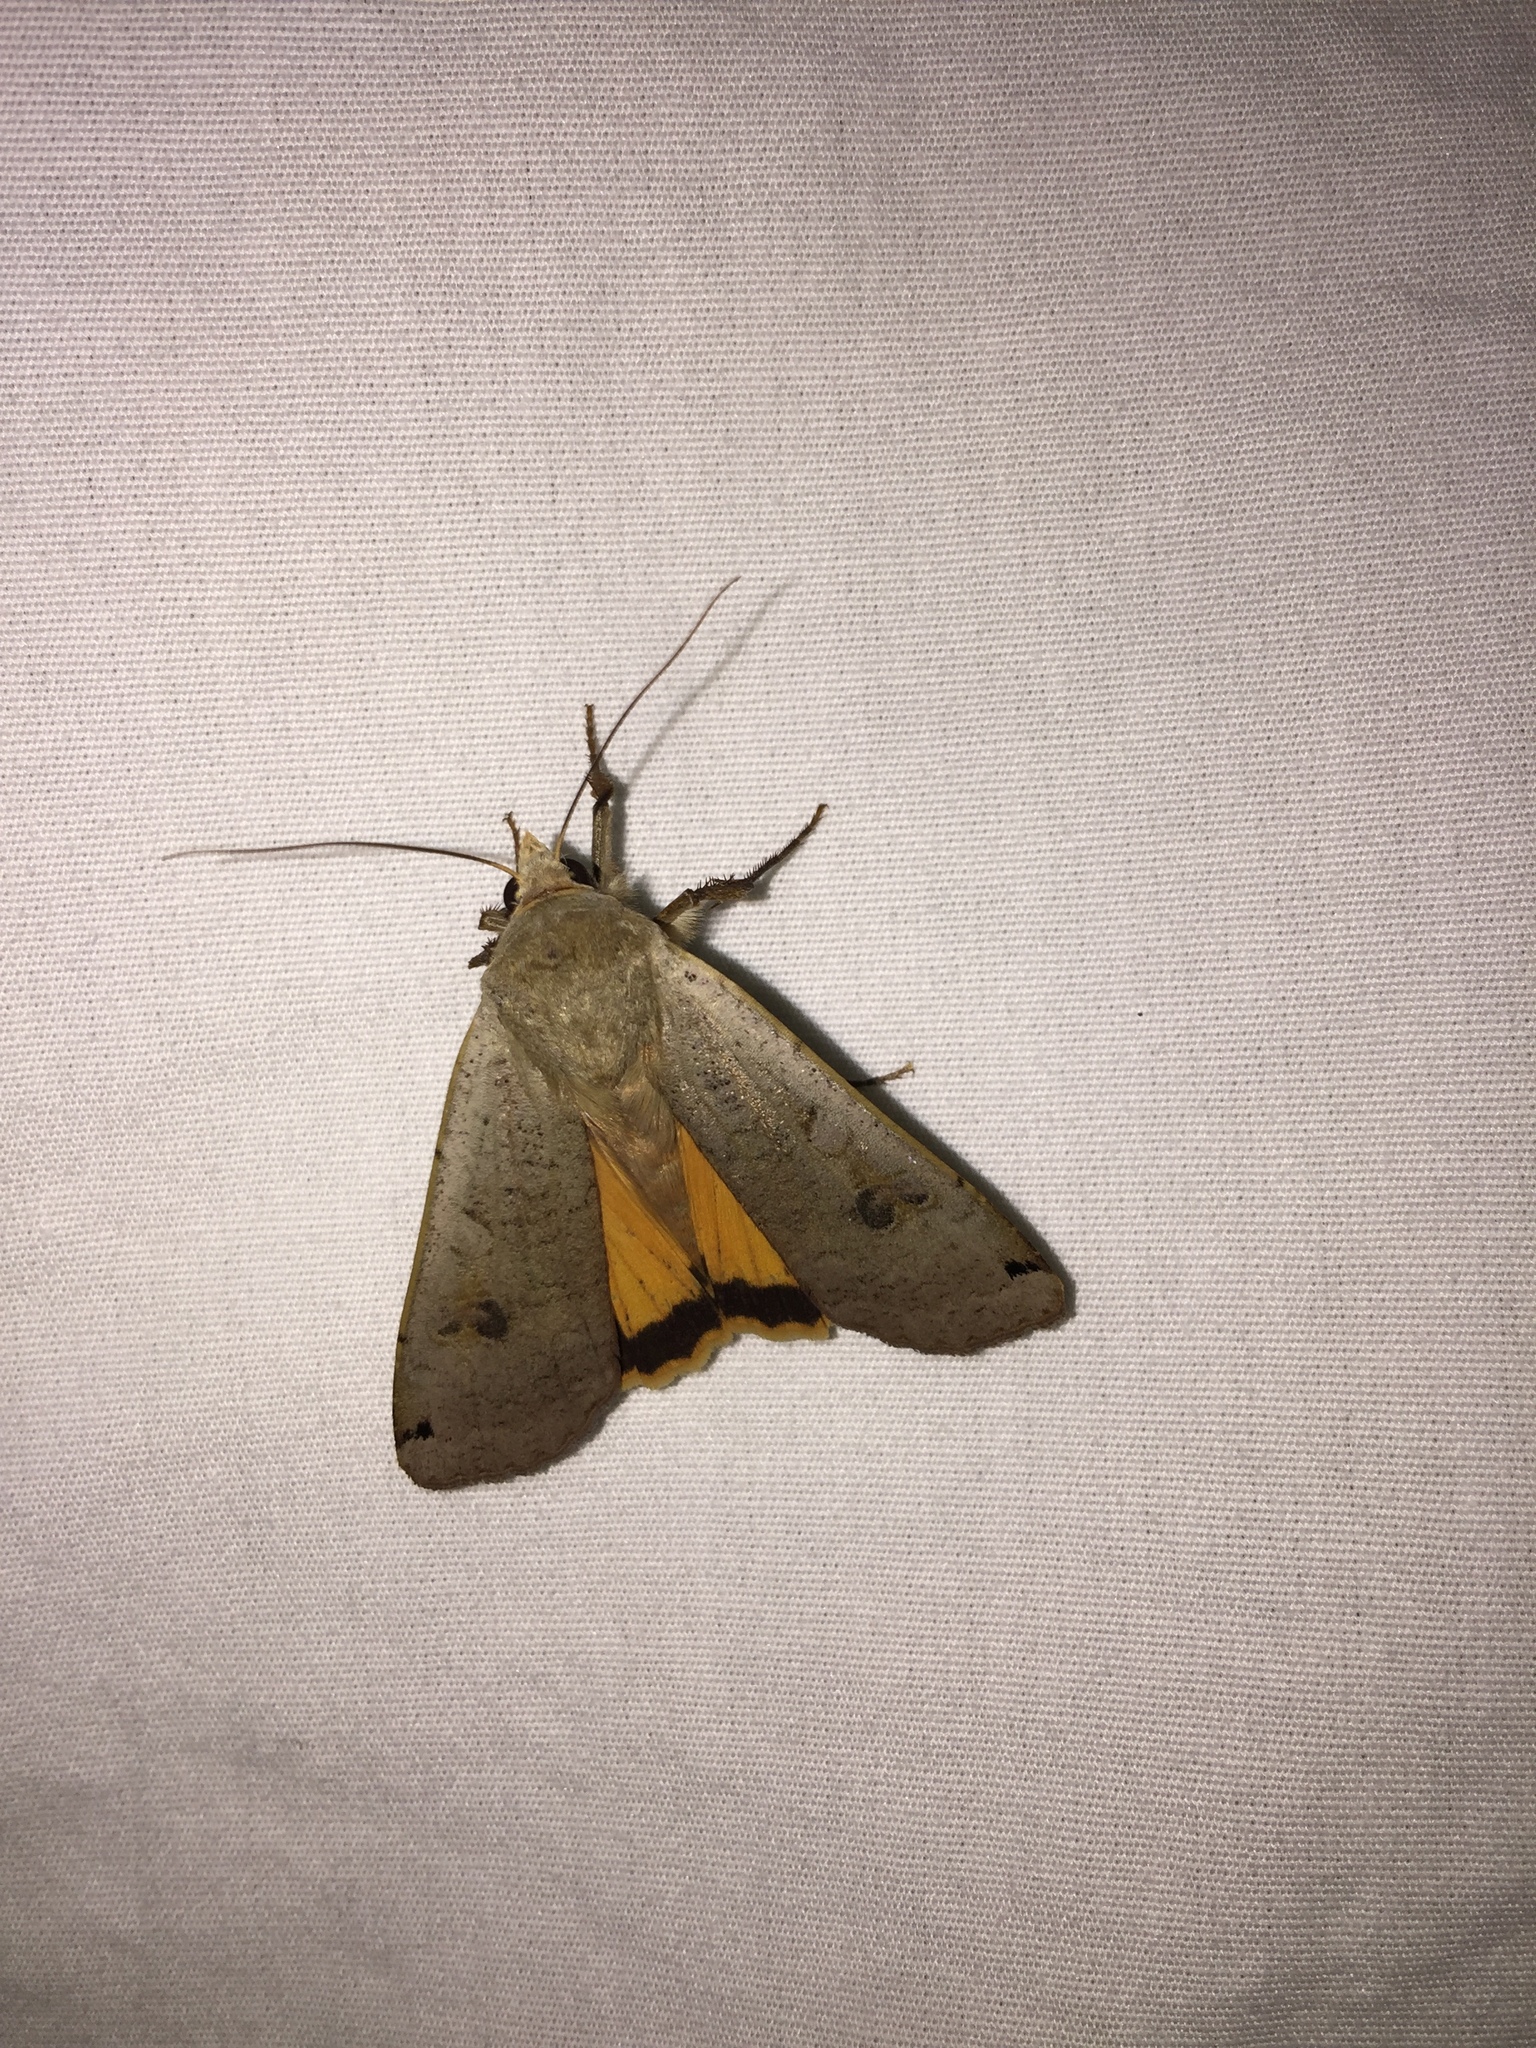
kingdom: Animalia
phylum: Arthropoda
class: Insecta
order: Lepidoptera
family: Noctuidae
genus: Noctua
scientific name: Noctua pronuba
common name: Large yellow underwing
